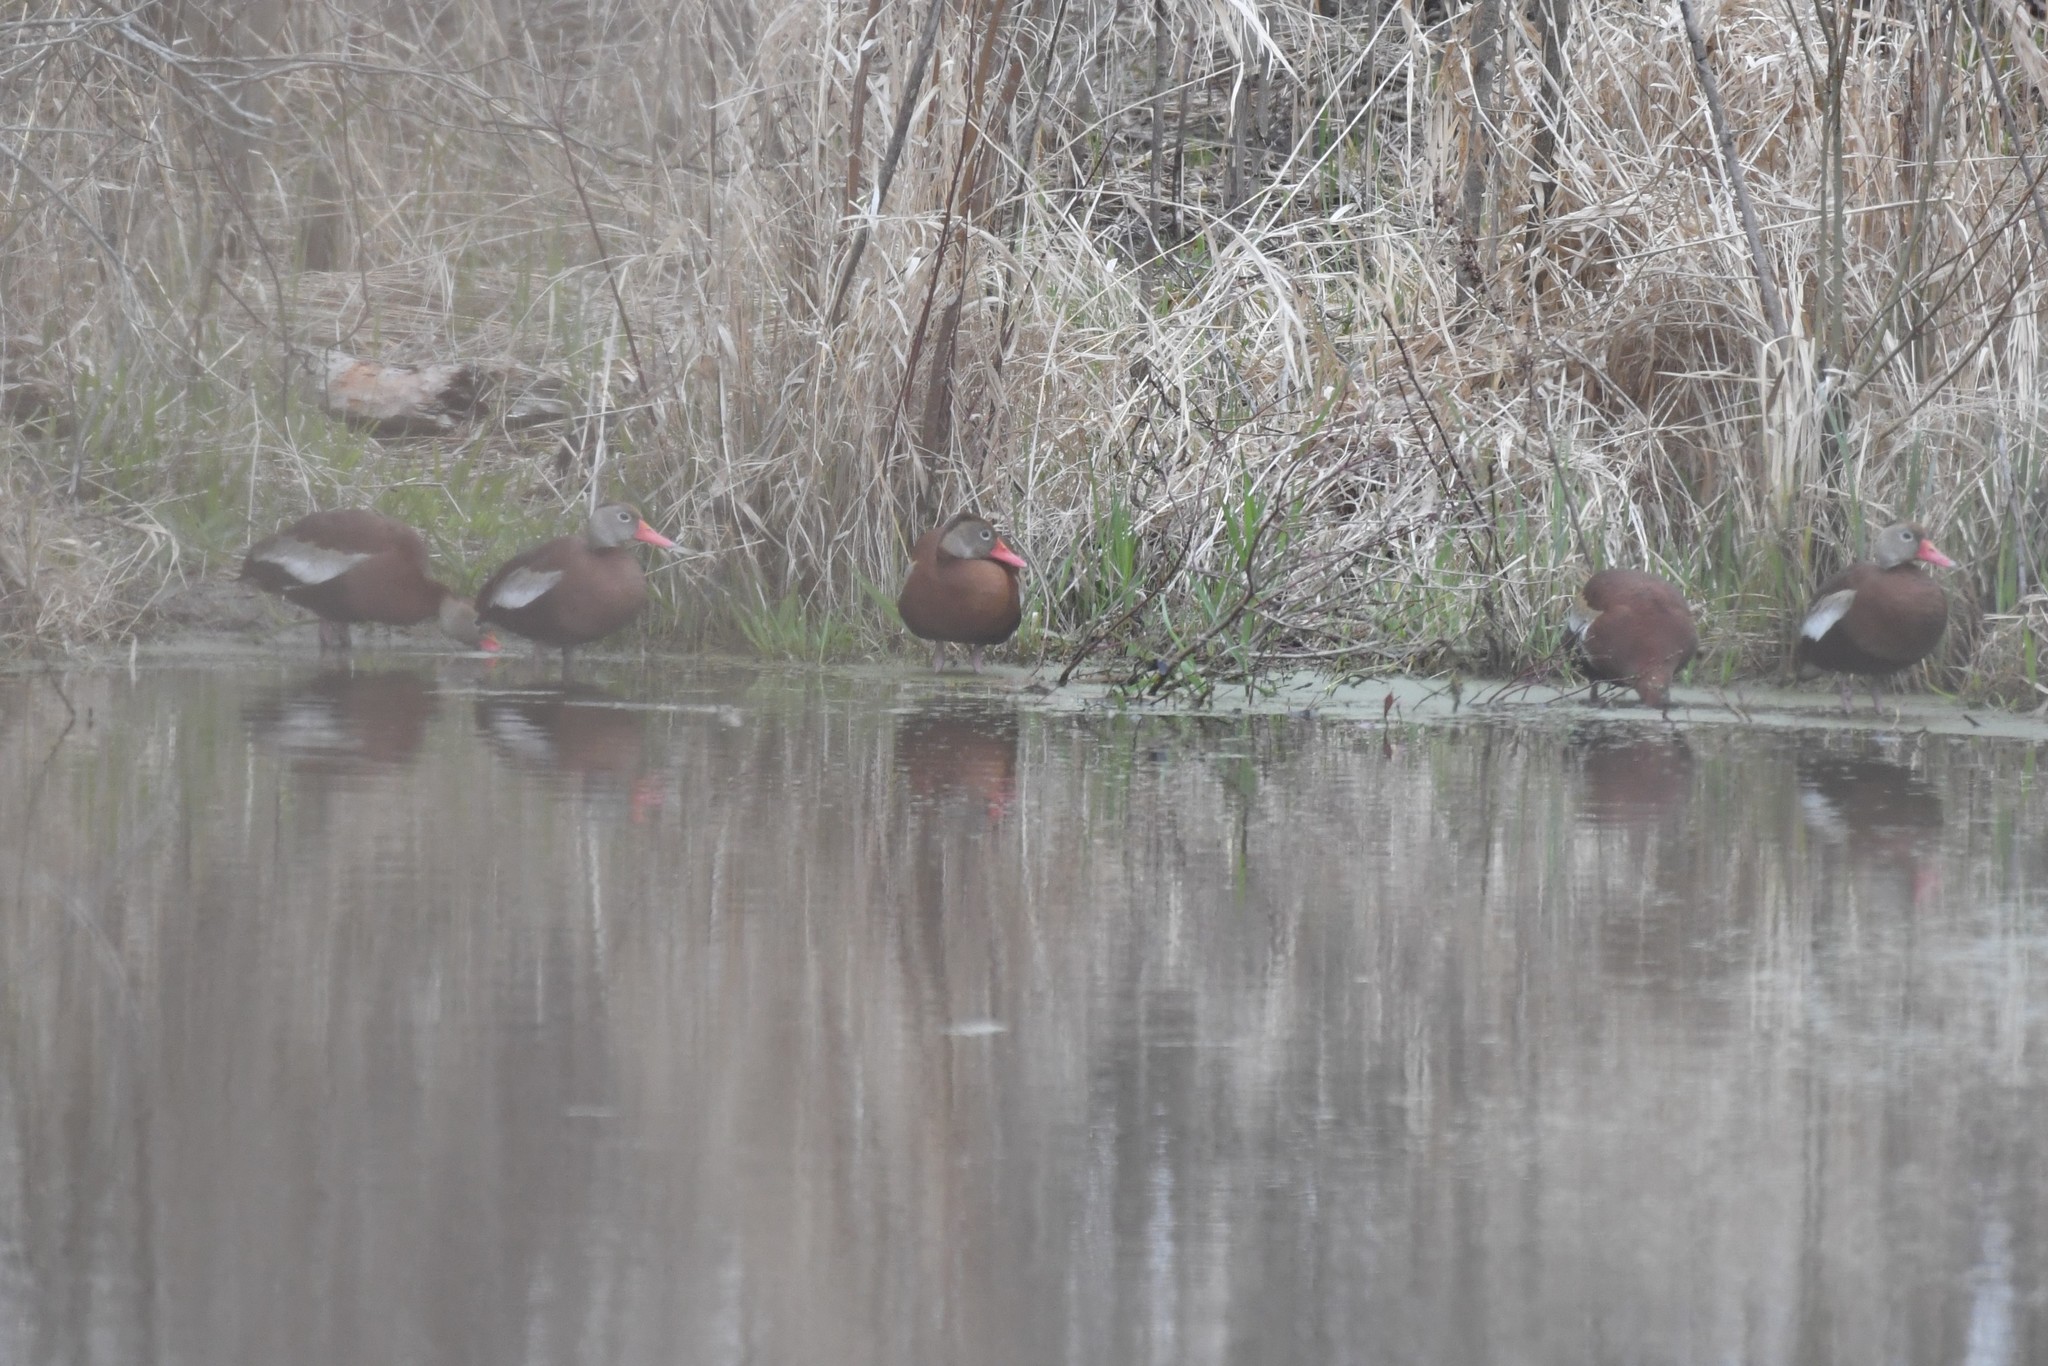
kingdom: Animalia
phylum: Chordata
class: Aves
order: Anseriformes
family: Anatidae
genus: Dendrocygna
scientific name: Dendrocygna autumnalis
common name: Black-bellied whistling duck
